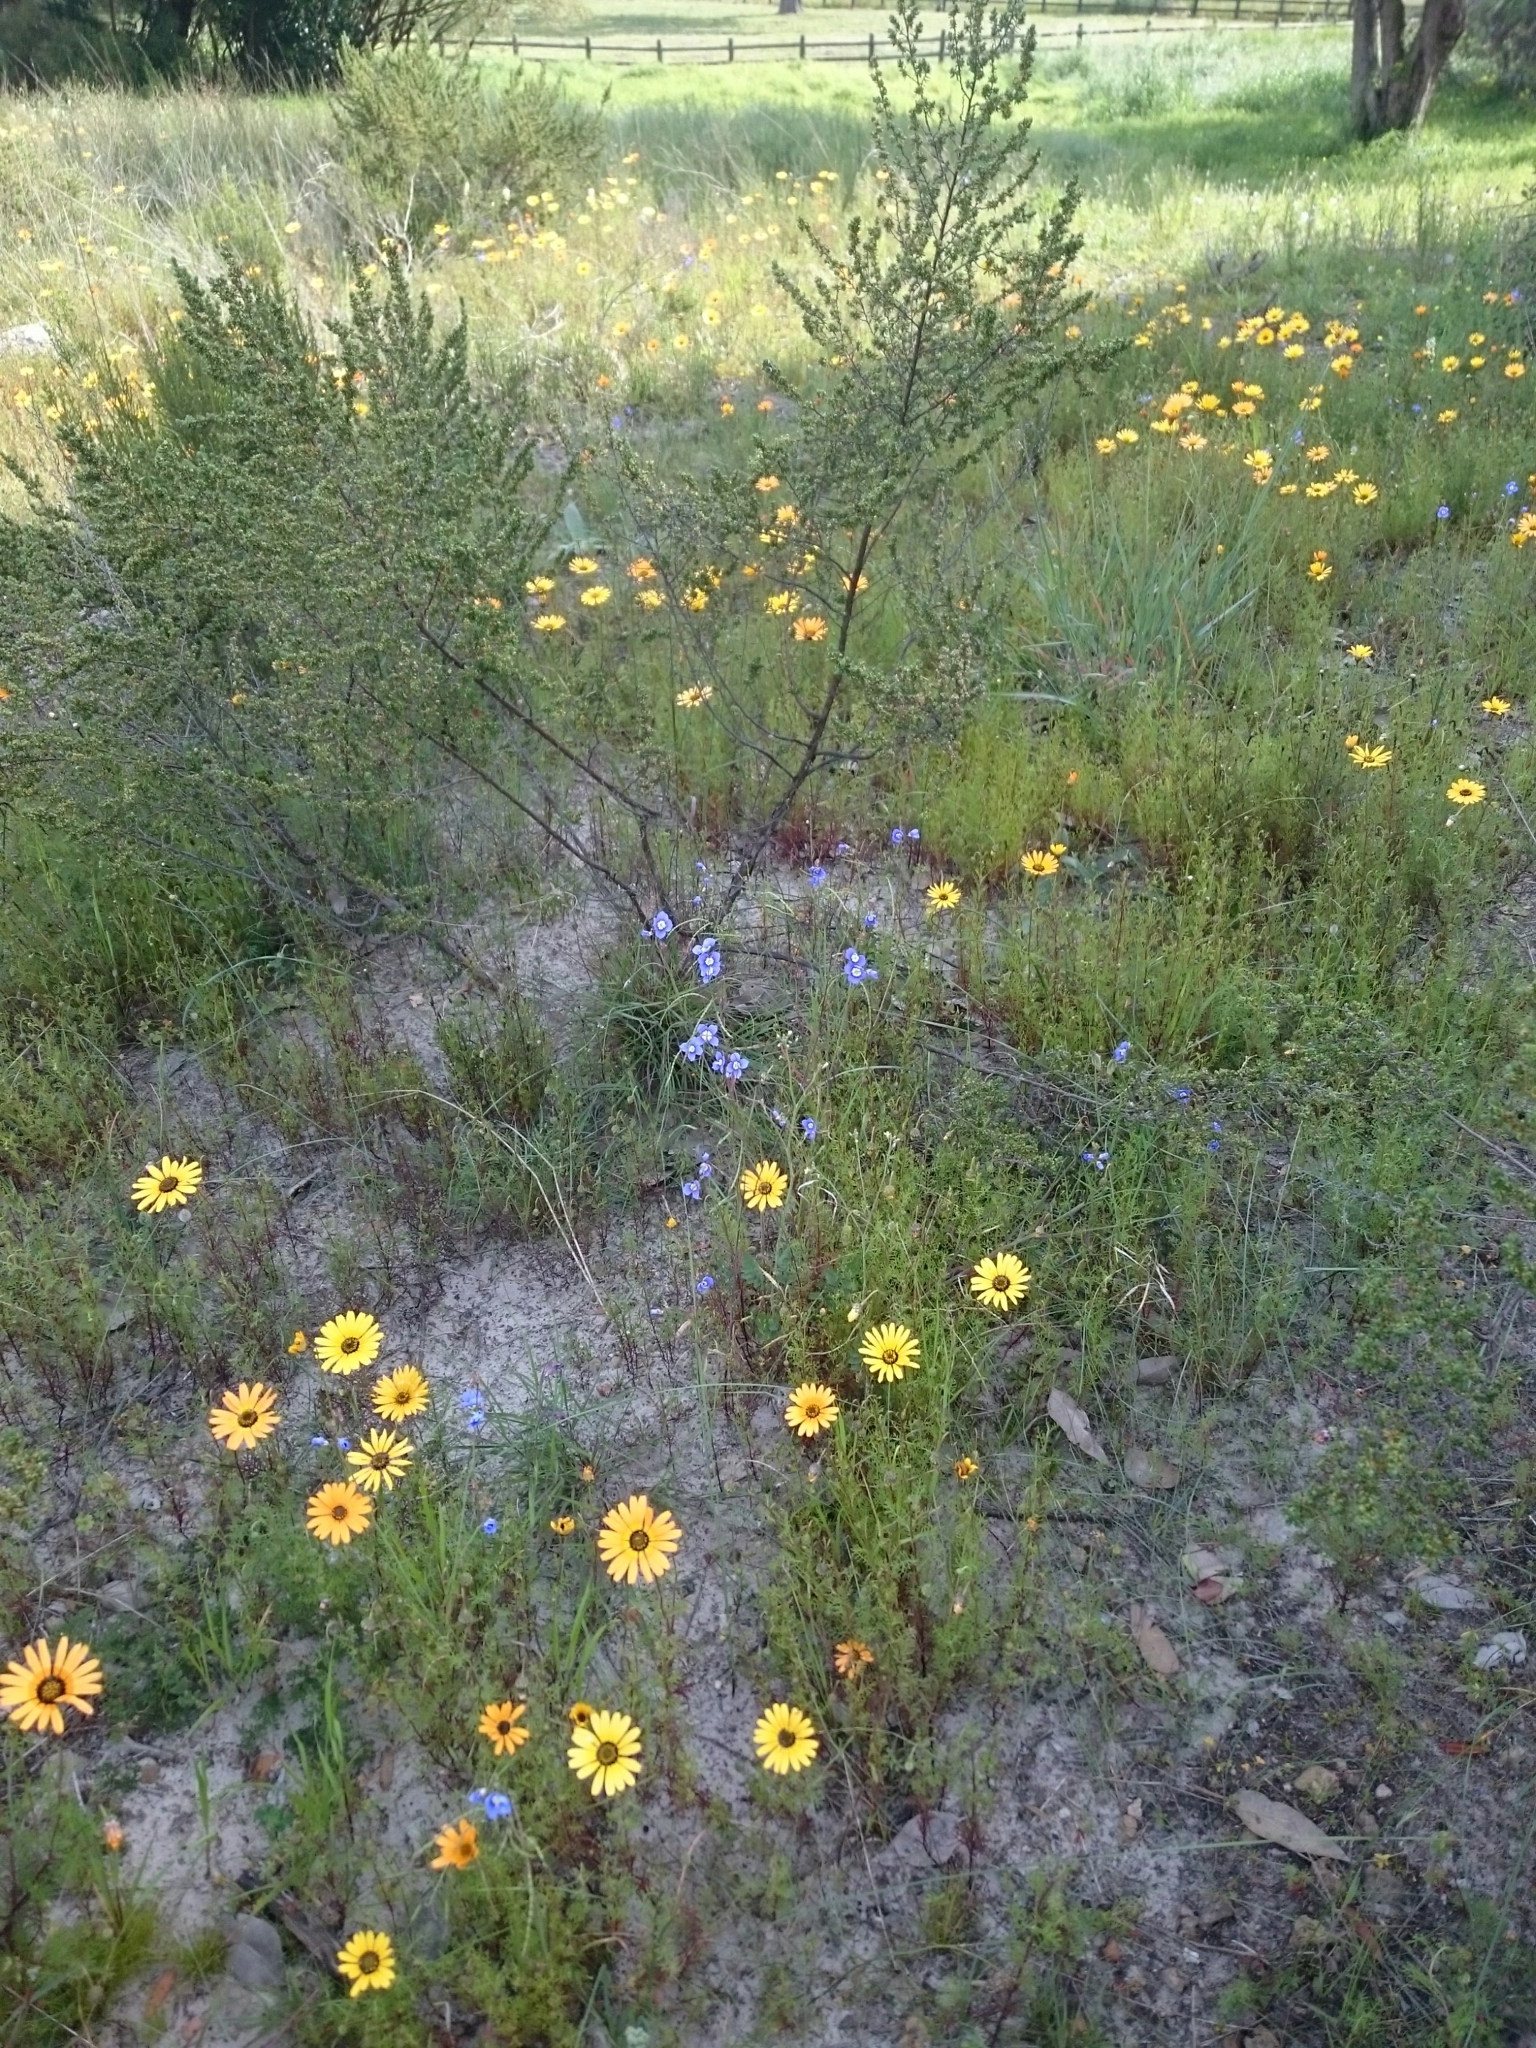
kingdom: Plantae
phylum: Tracheophyta
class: Magnoliopsida
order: Brassicales
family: Brassicaceae
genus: Heliophila
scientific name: Heliophila coronopifolia
